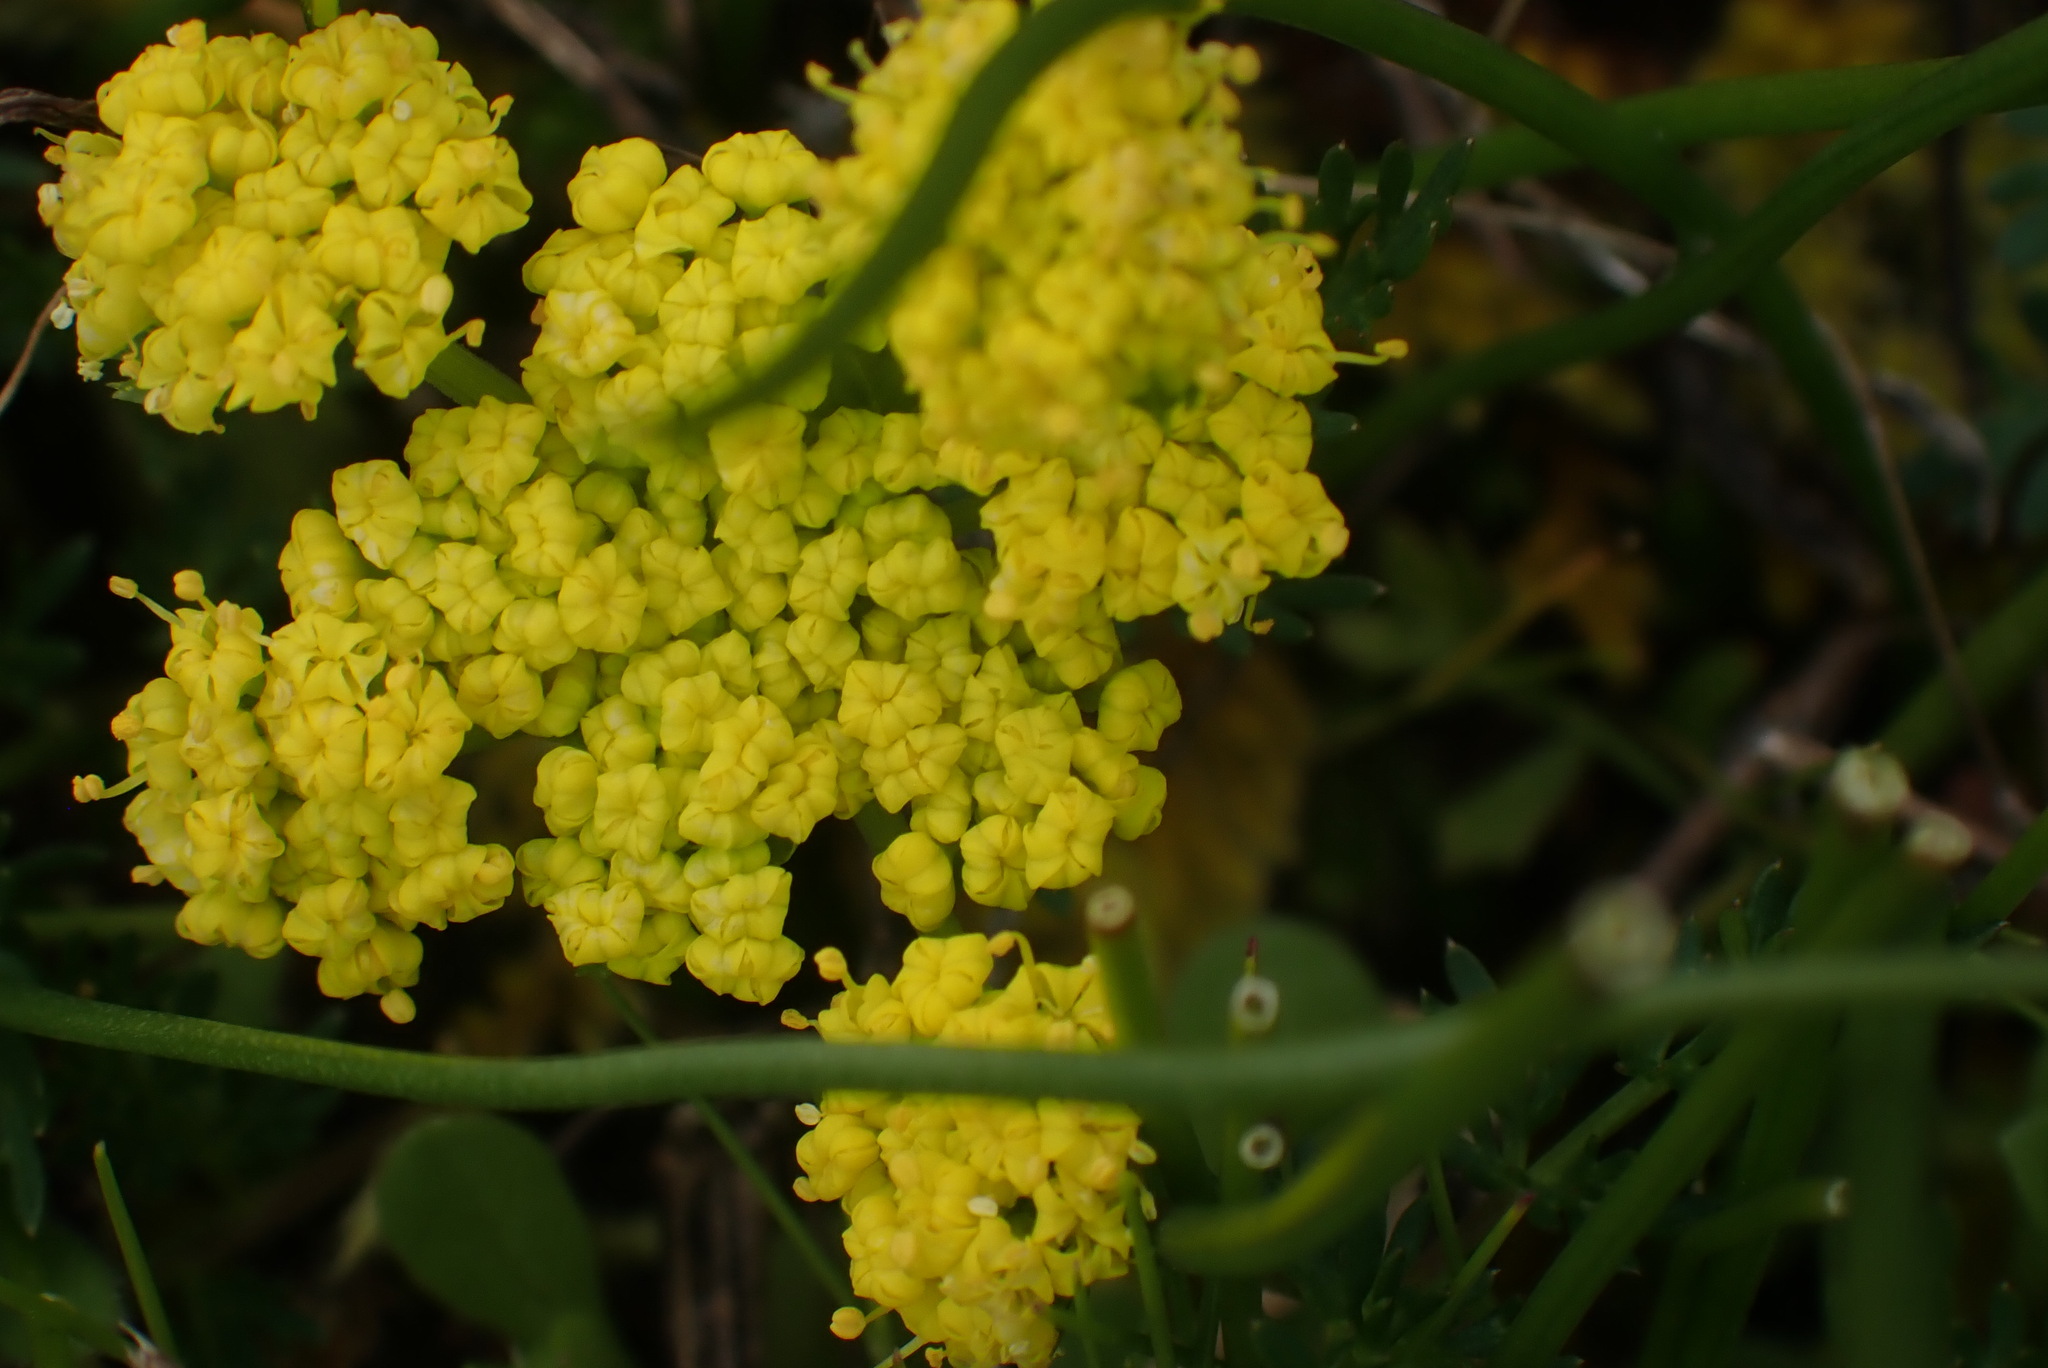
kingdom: Plantae
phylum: Tracheophyta
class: Magnoliopsida
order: Apiales
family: Apiaceae
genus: Lomatium
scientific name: Lomatium utriculatum
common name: Fine-leaf desert-parsley
